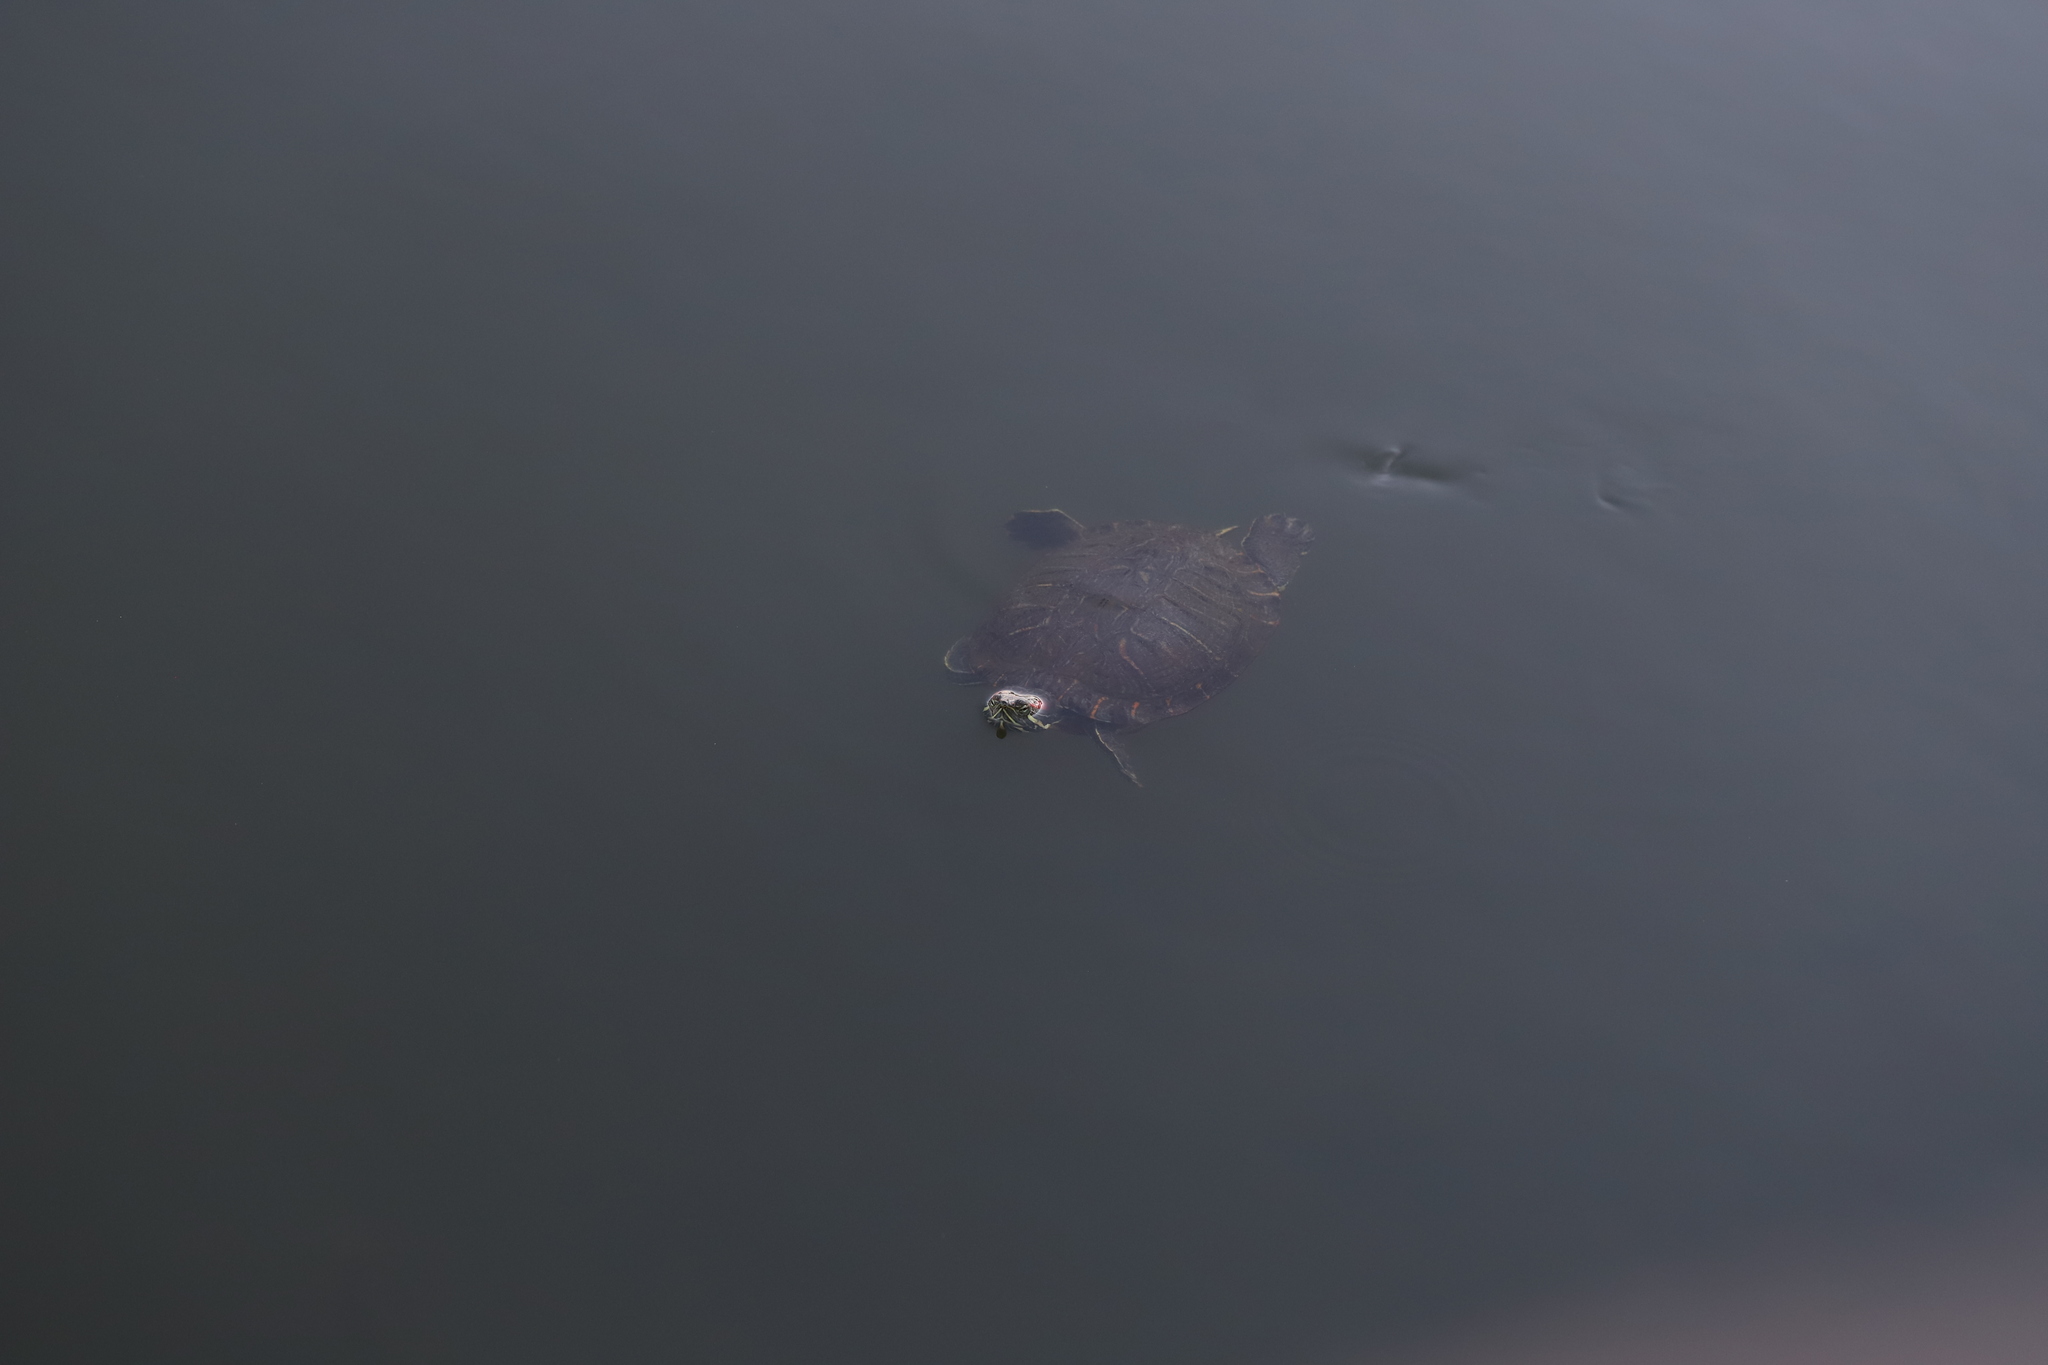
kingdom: Animalia
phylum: Chordata
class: Testudines
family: Emydidae
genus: Trachemys
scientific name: Trachemys scripta
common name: Slider
